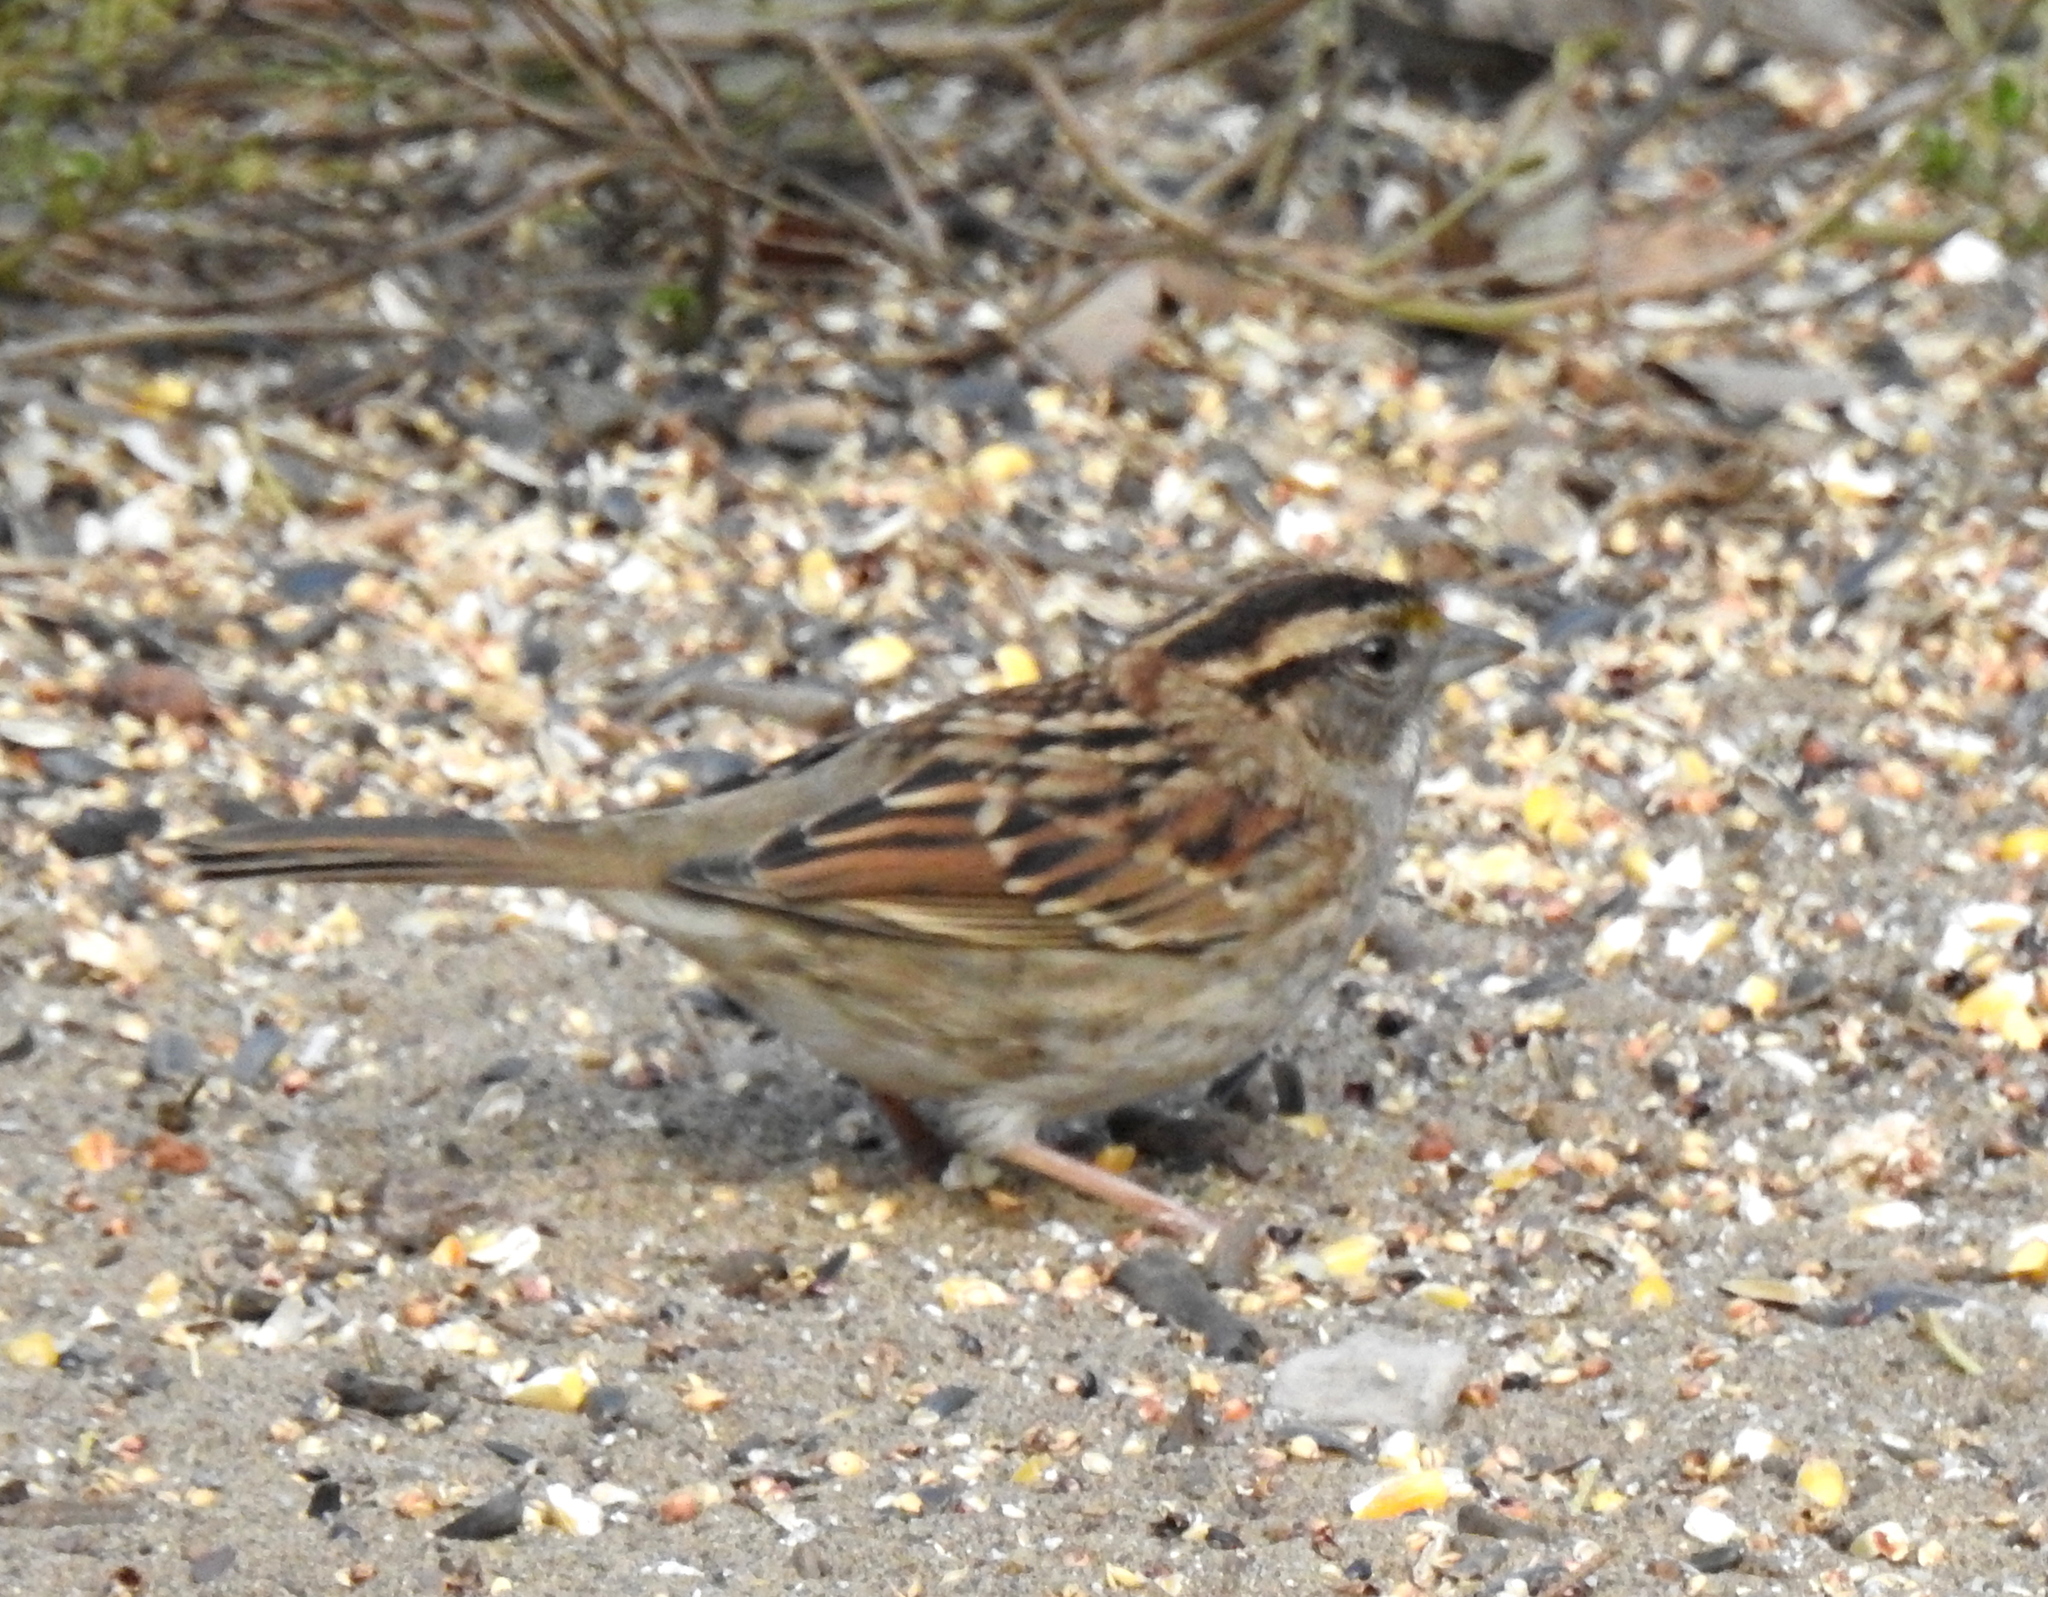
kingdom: Animalia
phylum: Chordata
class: Aves
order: Passeriformes
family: Passerellidae
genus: Zonotrichia
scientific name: Zonotrichia albicollis
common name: White-throated sparrow
